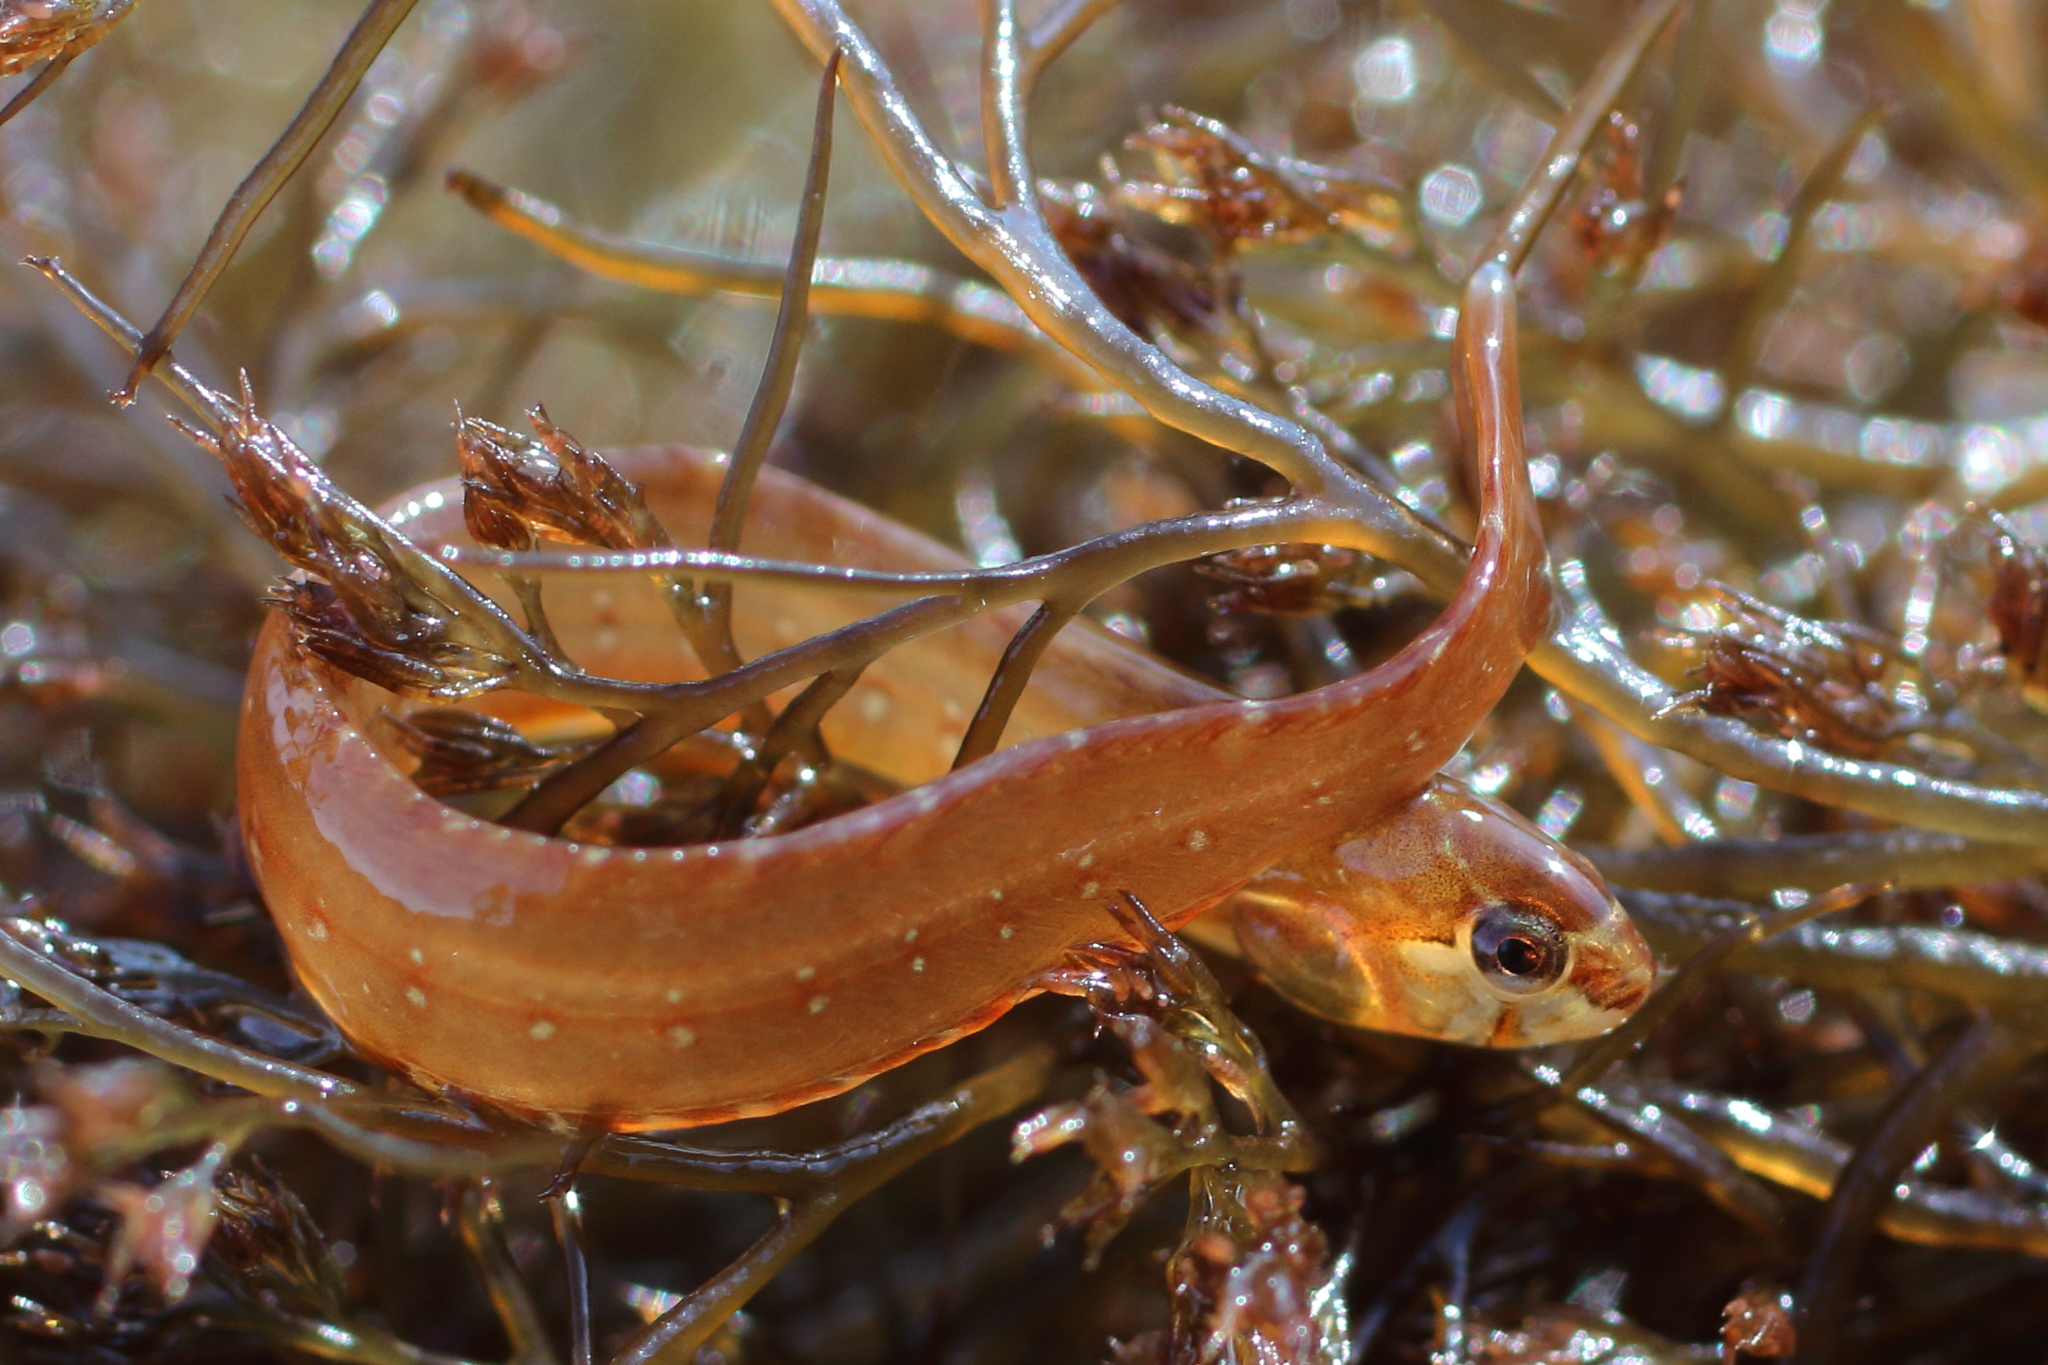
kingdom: Animalia
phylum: Chordata
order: Perciformes
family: Pholidae
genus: Pholis
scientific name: Pholis schultzi
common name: Red gunnel
